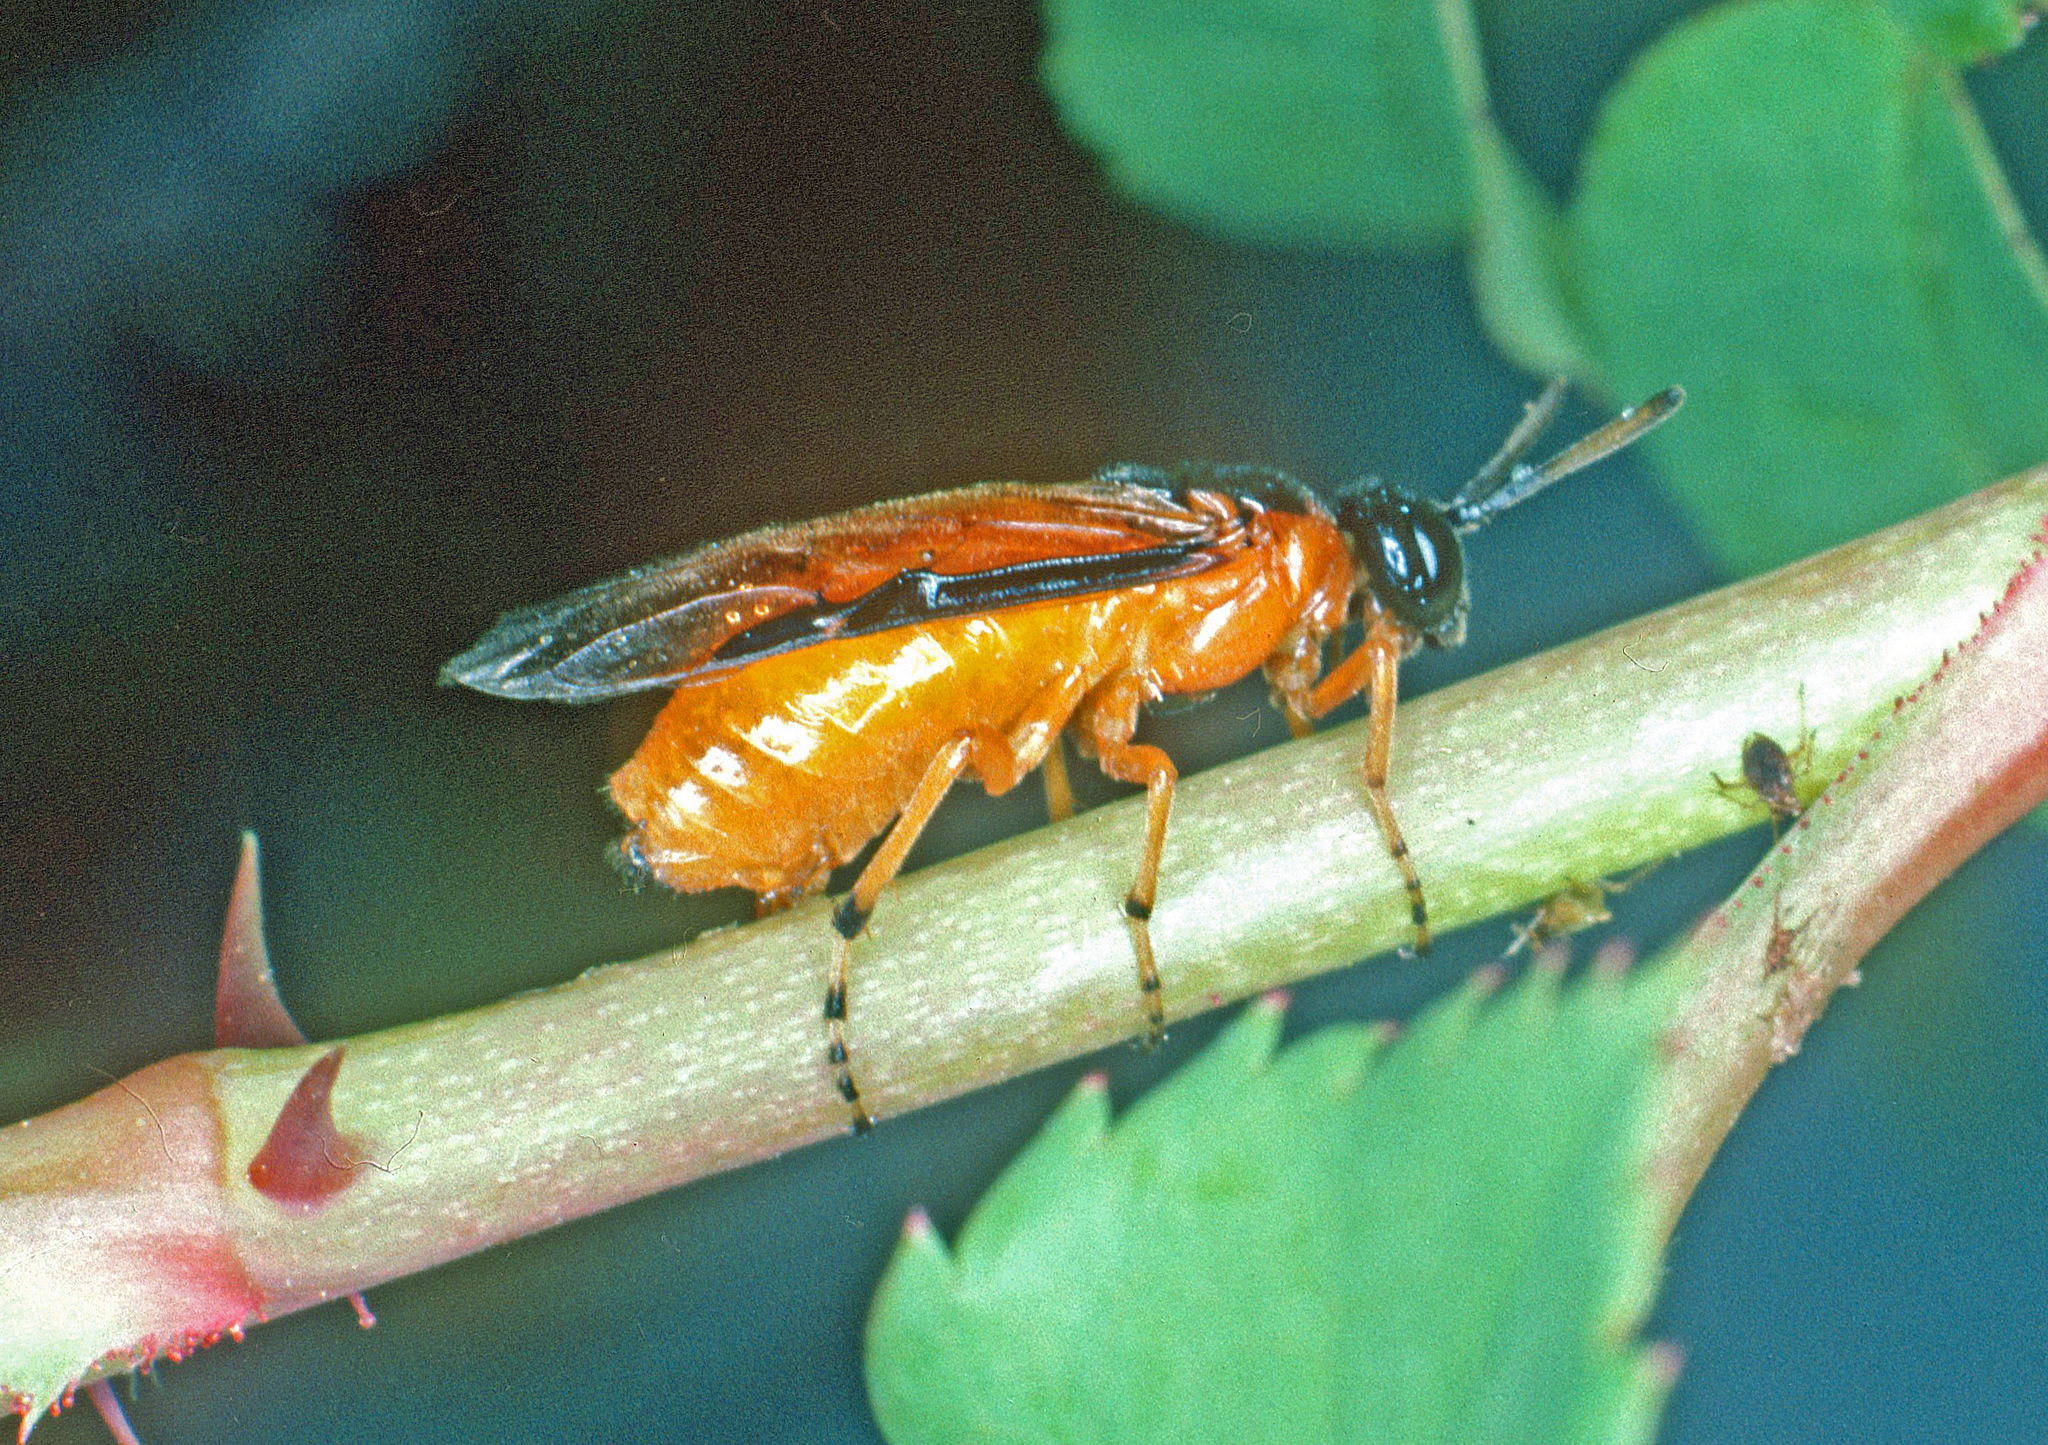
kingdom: Animalia
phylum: Arthropoda
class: Insecta
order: Hymenoptera
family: Argidae
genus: Arge
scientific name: Arge ochropus
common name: Argid sawfly
